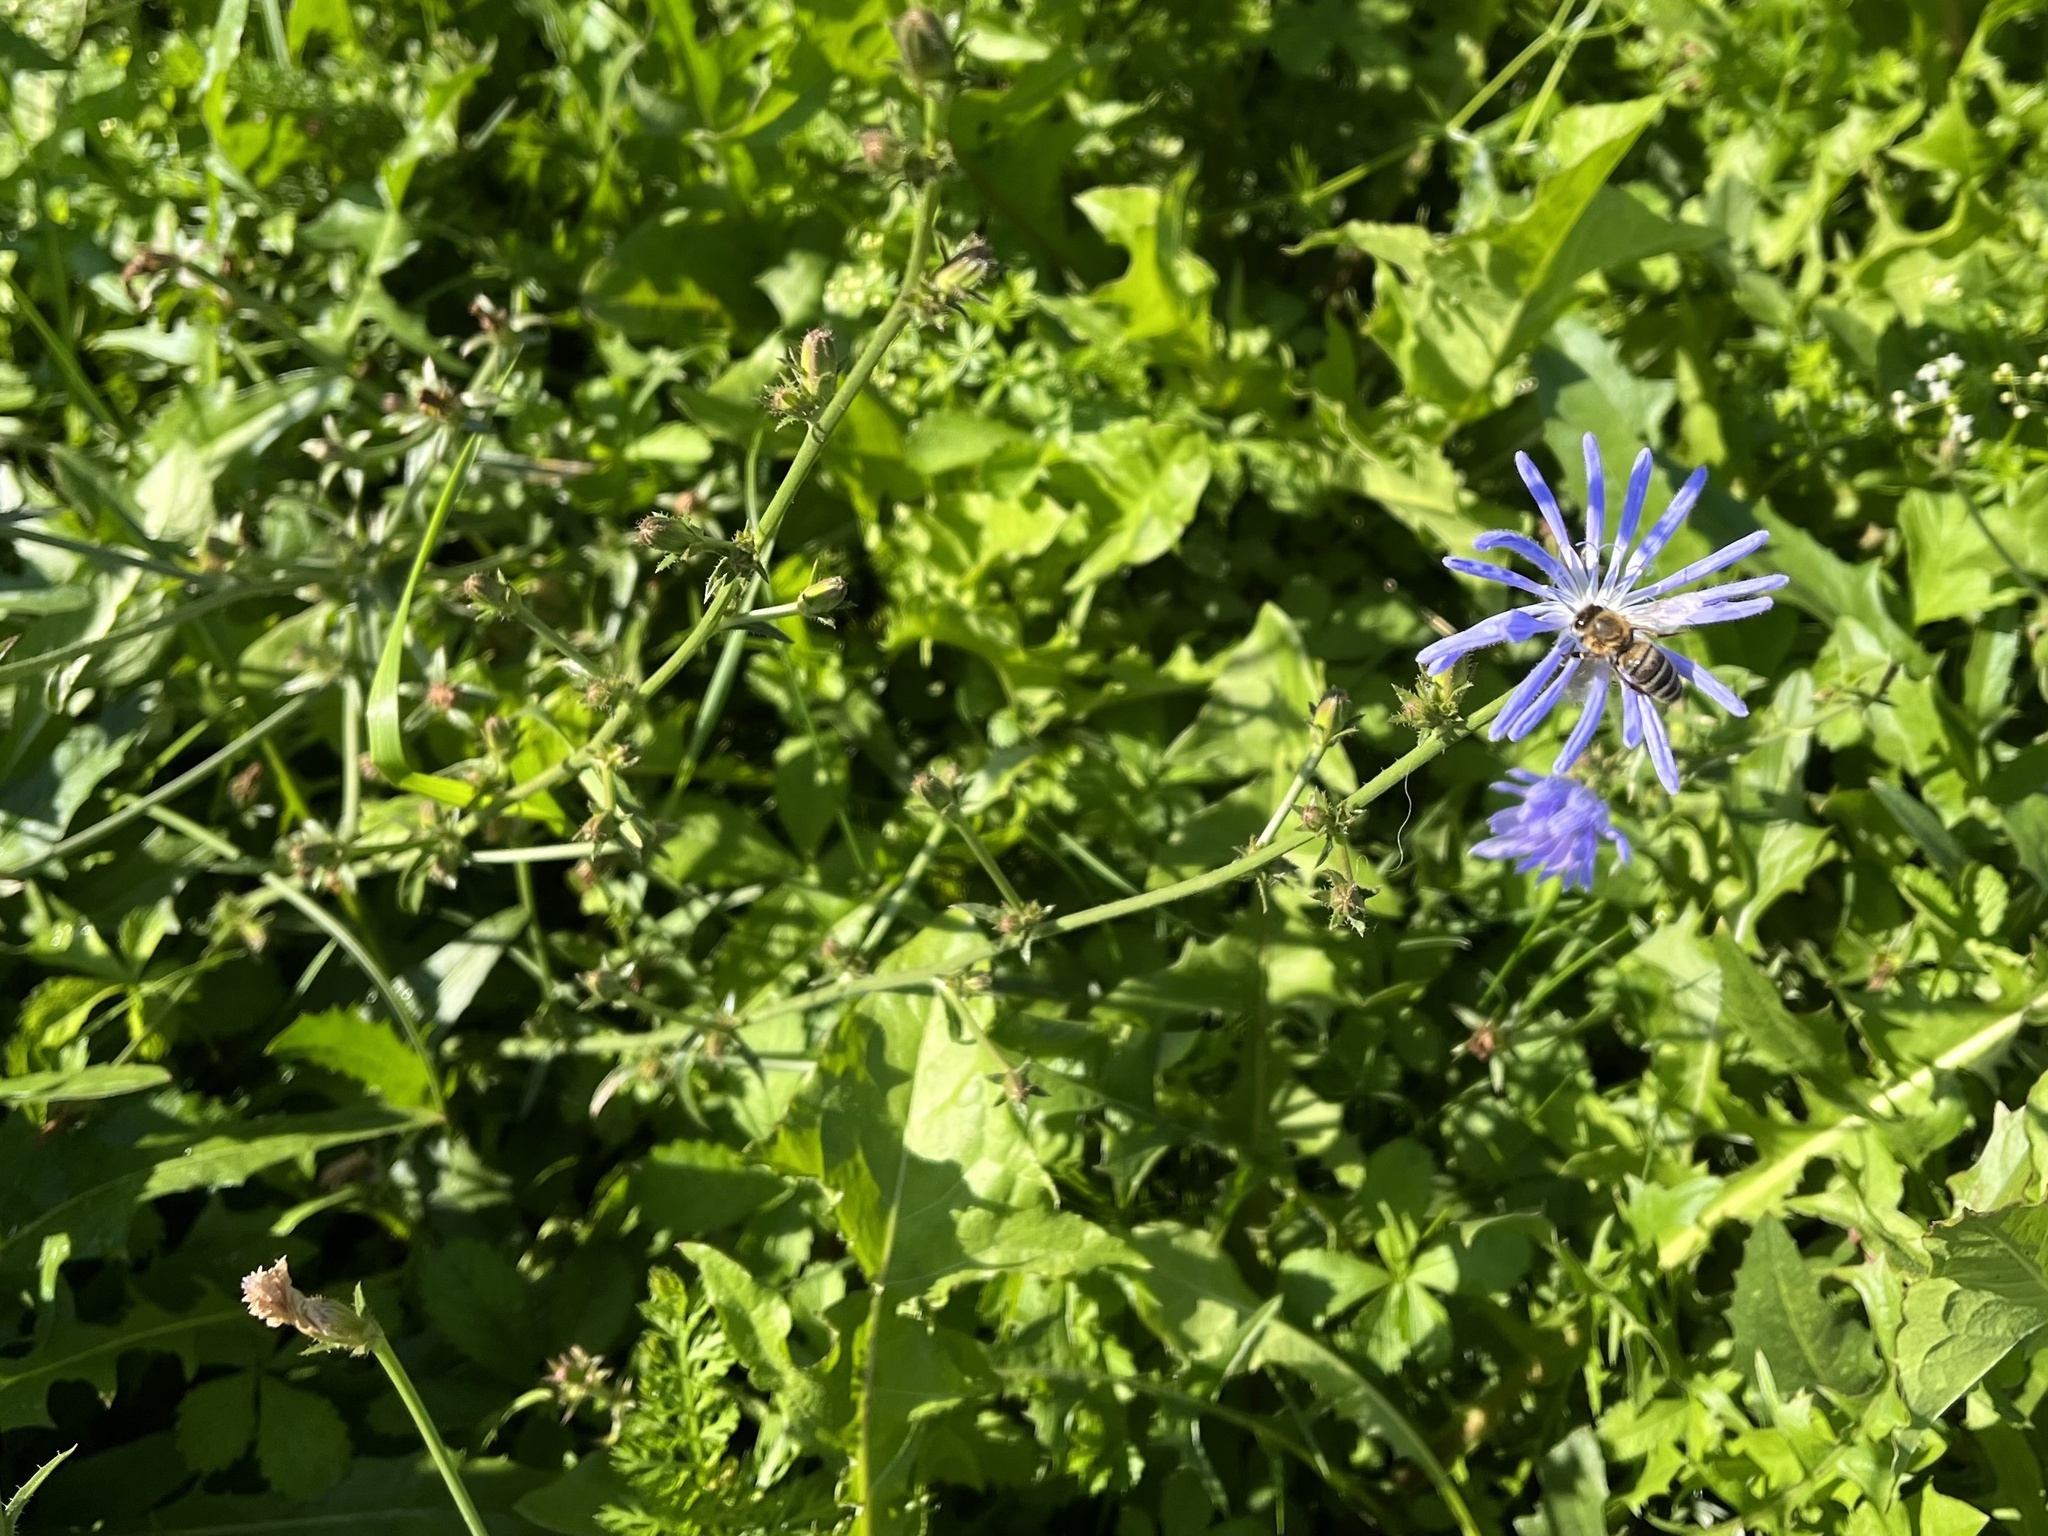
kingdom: Plantae
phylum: Tracheophyta
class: Magnoliopsida
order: Asterales
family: Asteraceae
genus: Cichorium
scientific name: Cichorium intybus
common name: Chicory
